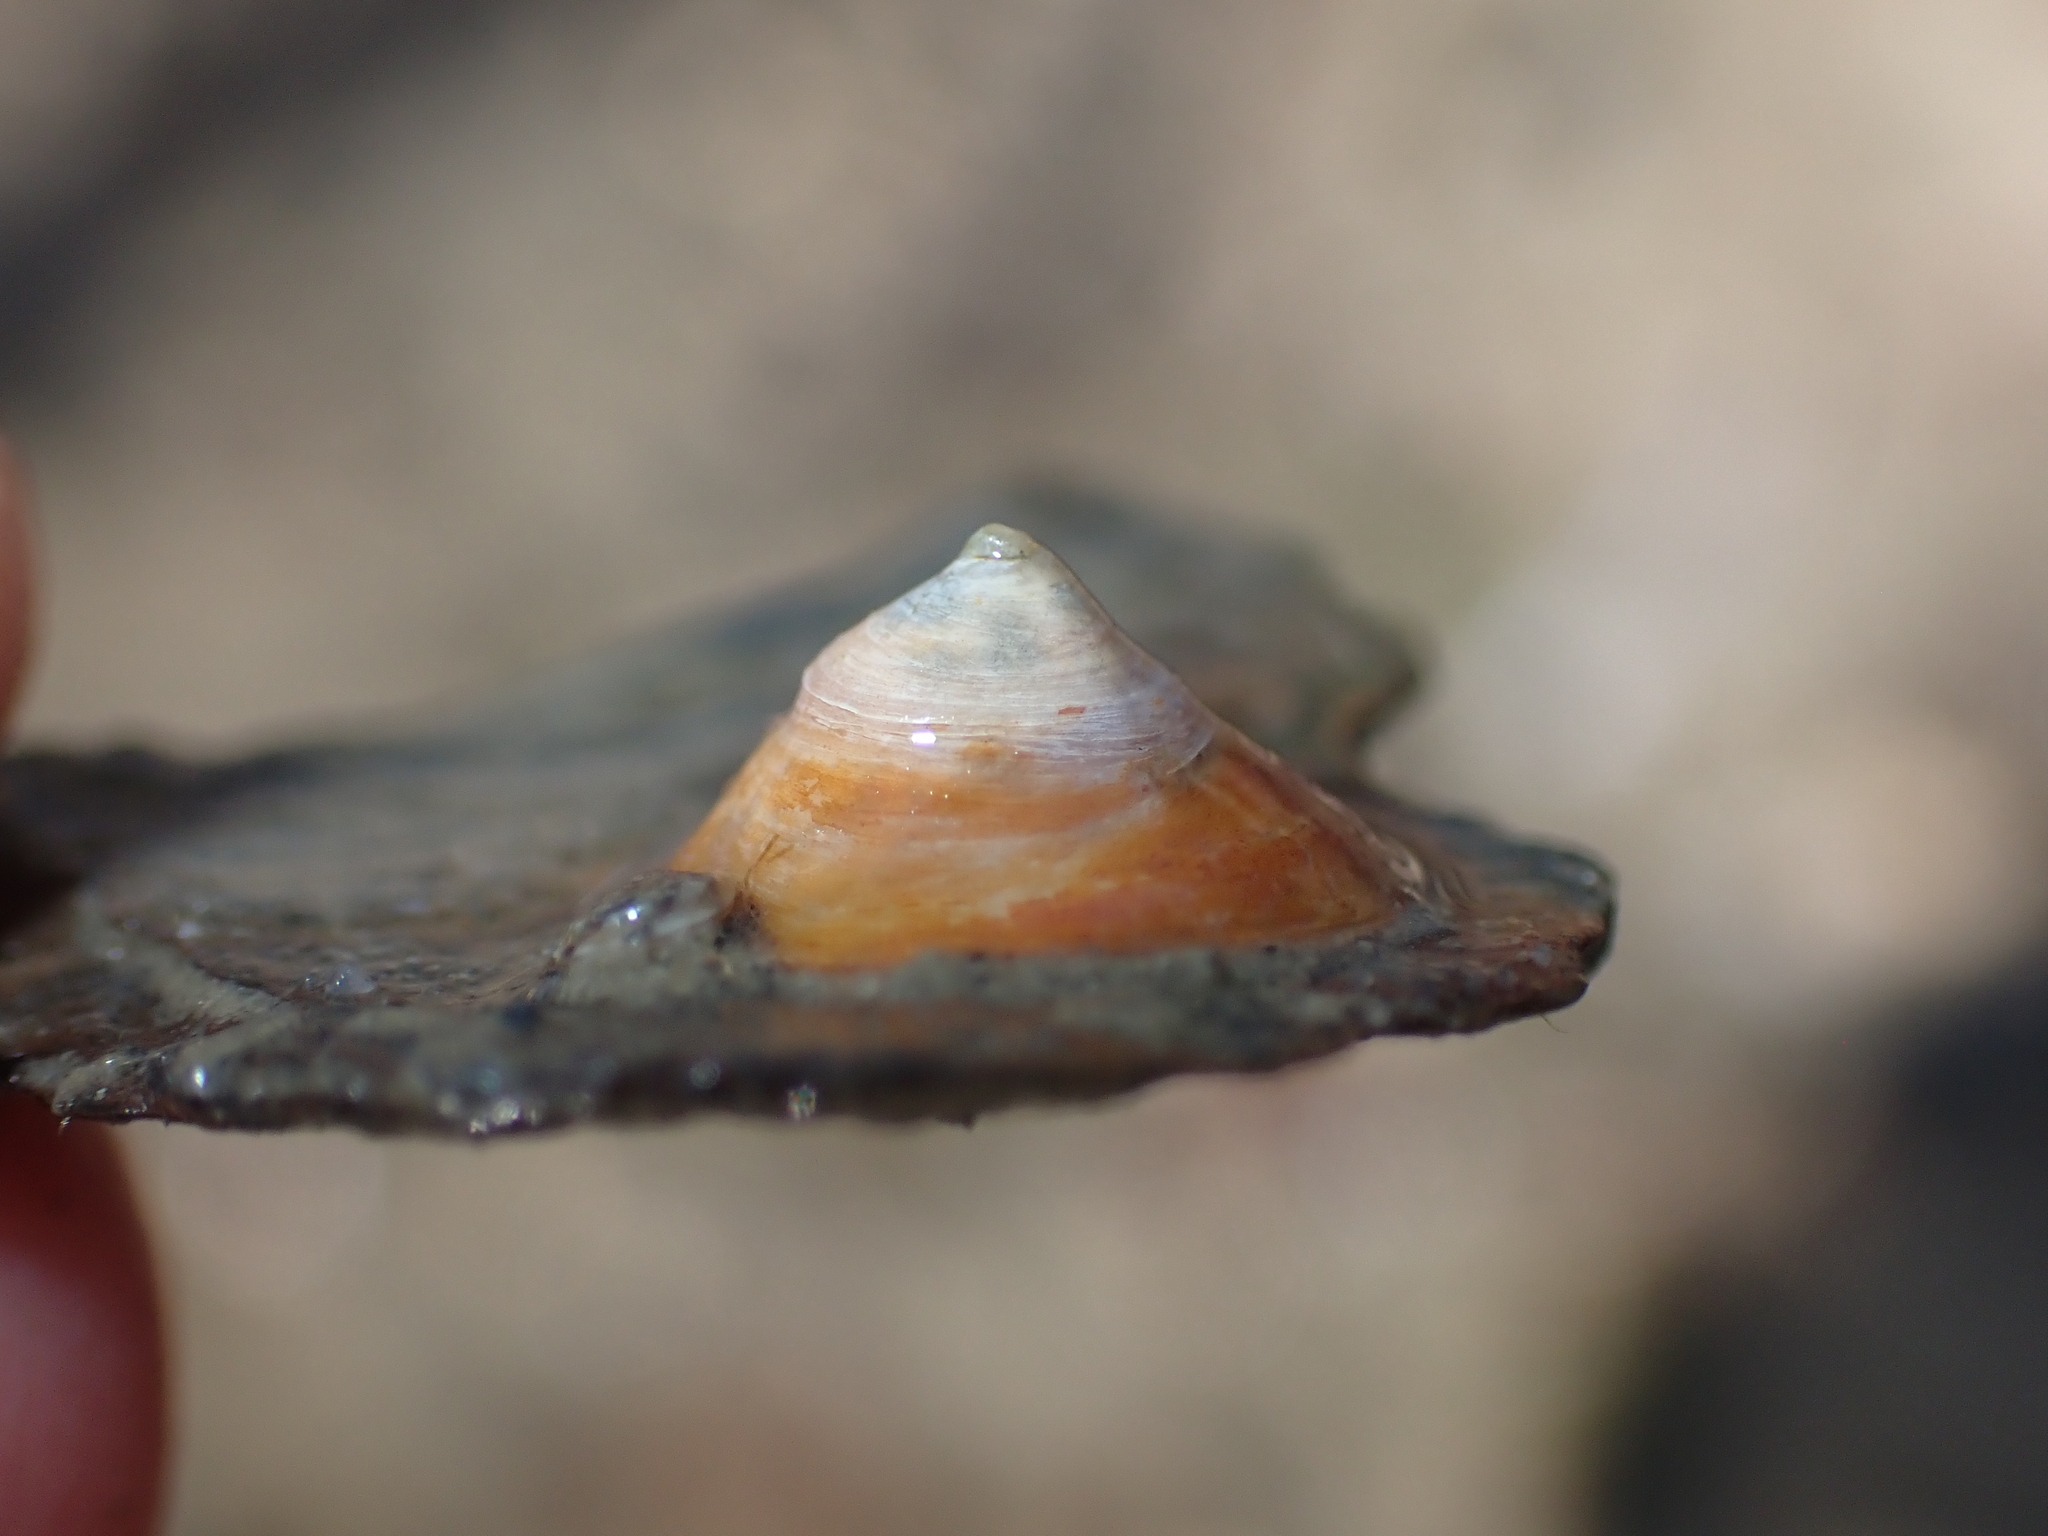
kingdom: Animalia
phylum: Mollusca
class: Gastropoda
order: Littorinimorpha
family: Calyptraeidae
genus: Calyptraea
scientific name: Calyptraea chinensis
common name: Chinaman's hat
